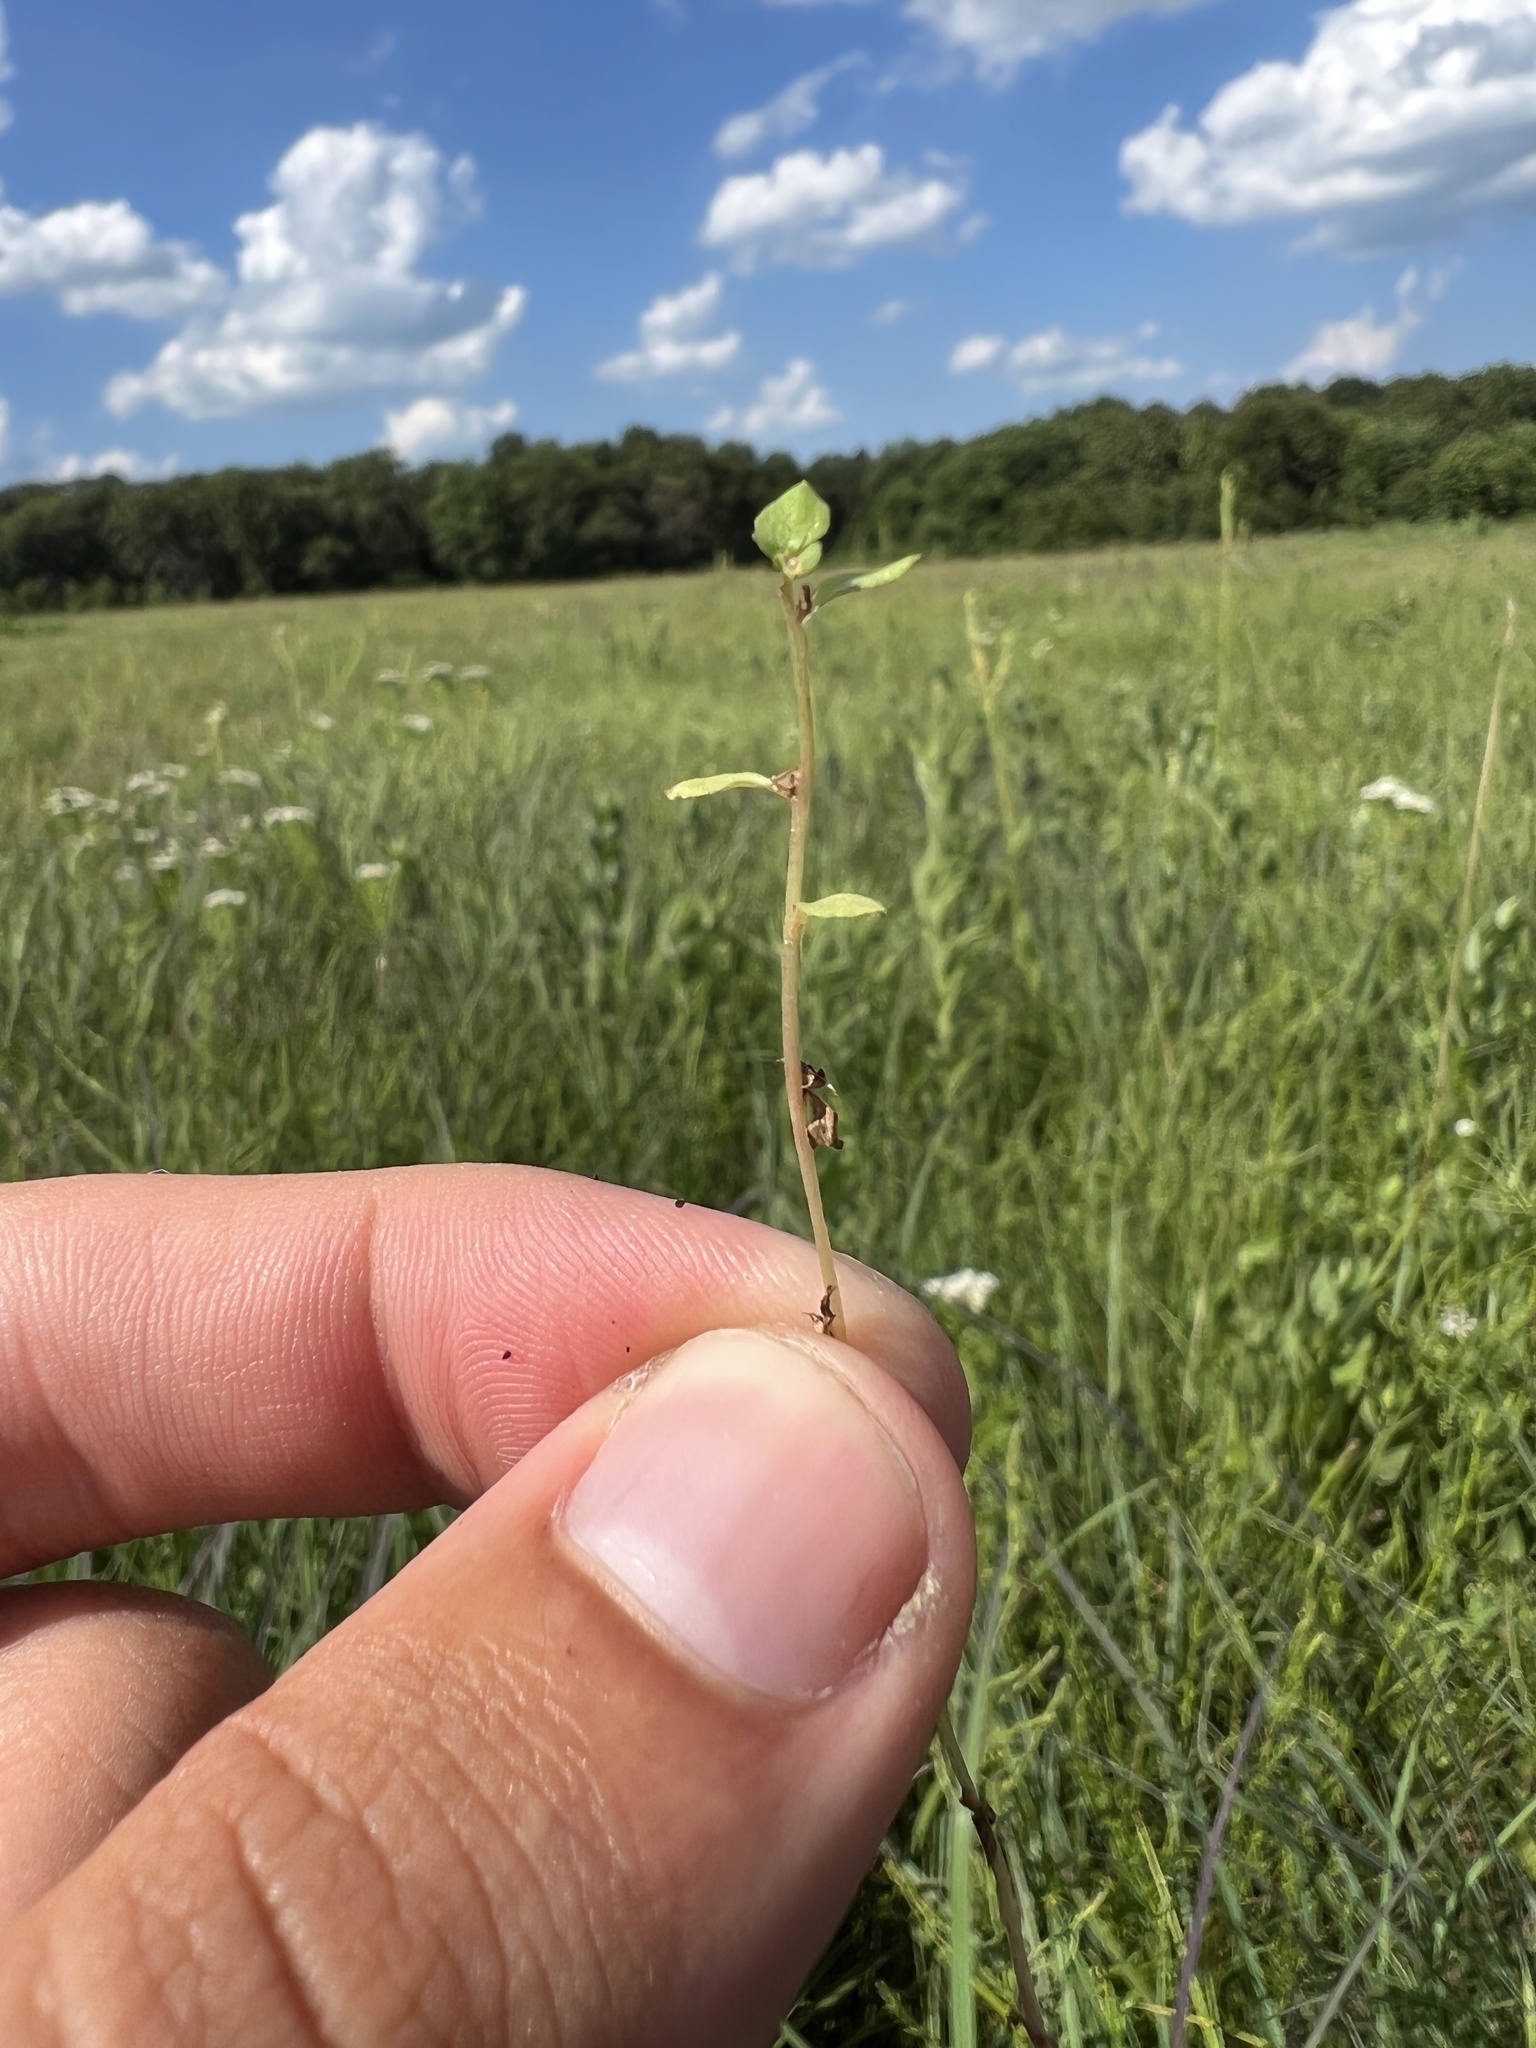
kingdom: Plantae
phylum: Tracheophyta
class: Magnoliopsida
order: Ericales
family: Primulaceae
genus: Lysimachia
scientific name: Lysimachia minima
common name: Chaffweed
